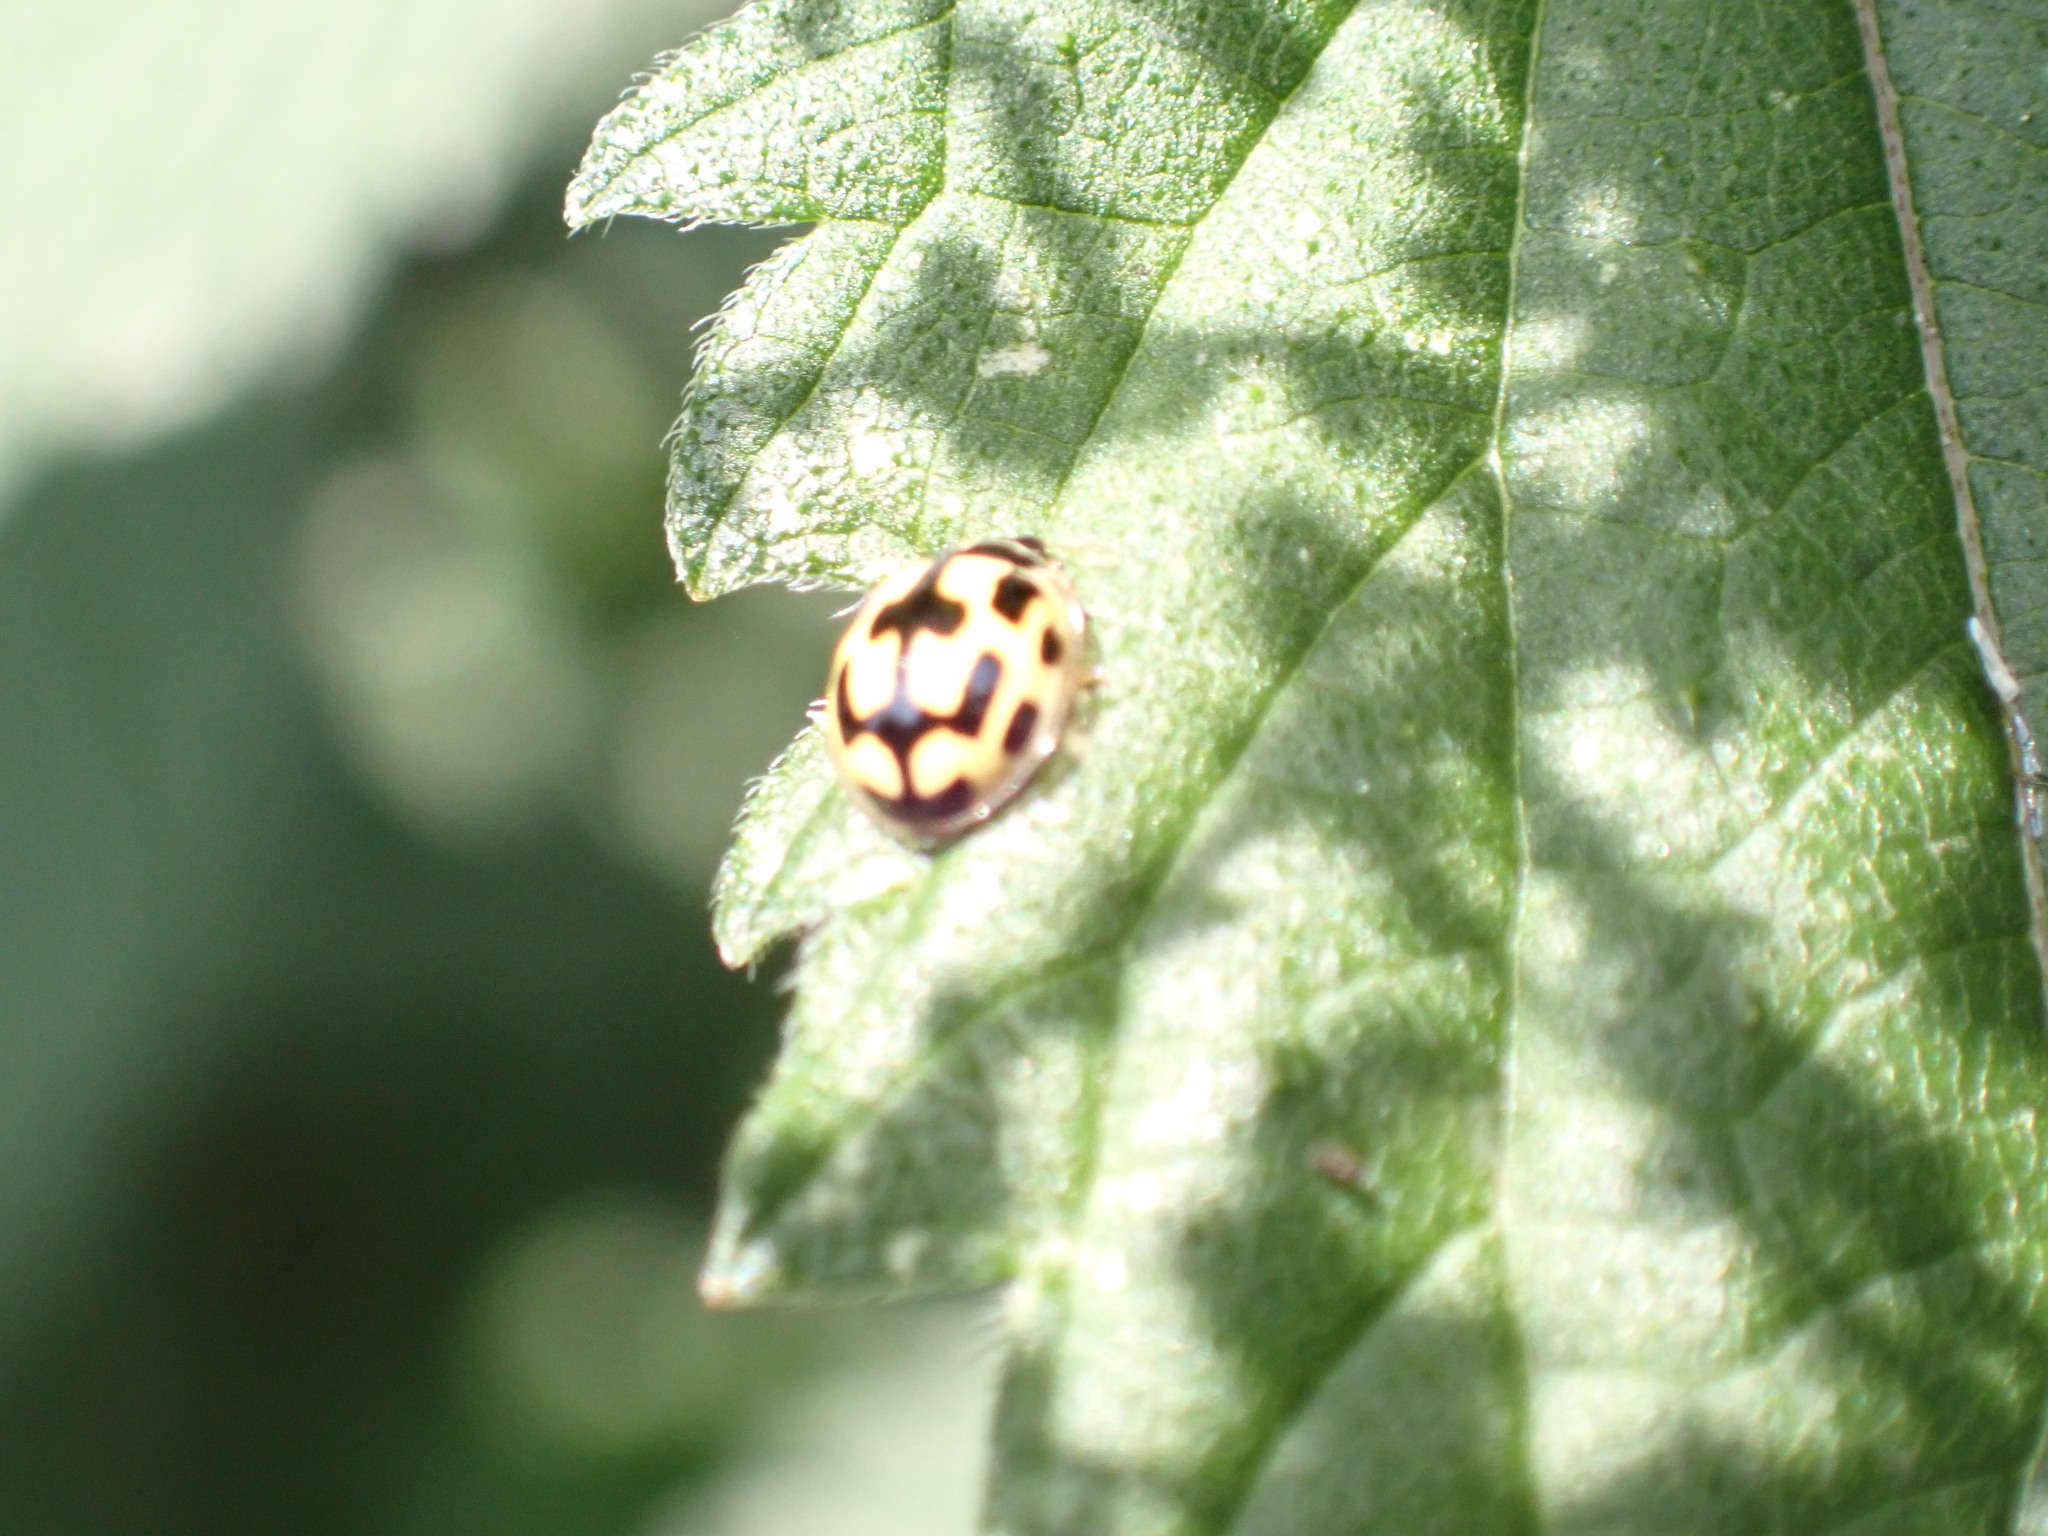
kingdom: Animalia
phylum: Arthropoda
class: Insecta
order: Coleoptera
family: Coccinellidae
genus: Propylaea
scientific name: Propylaea quatuordecimpunctata
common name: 14-spotted ladybird beetle
